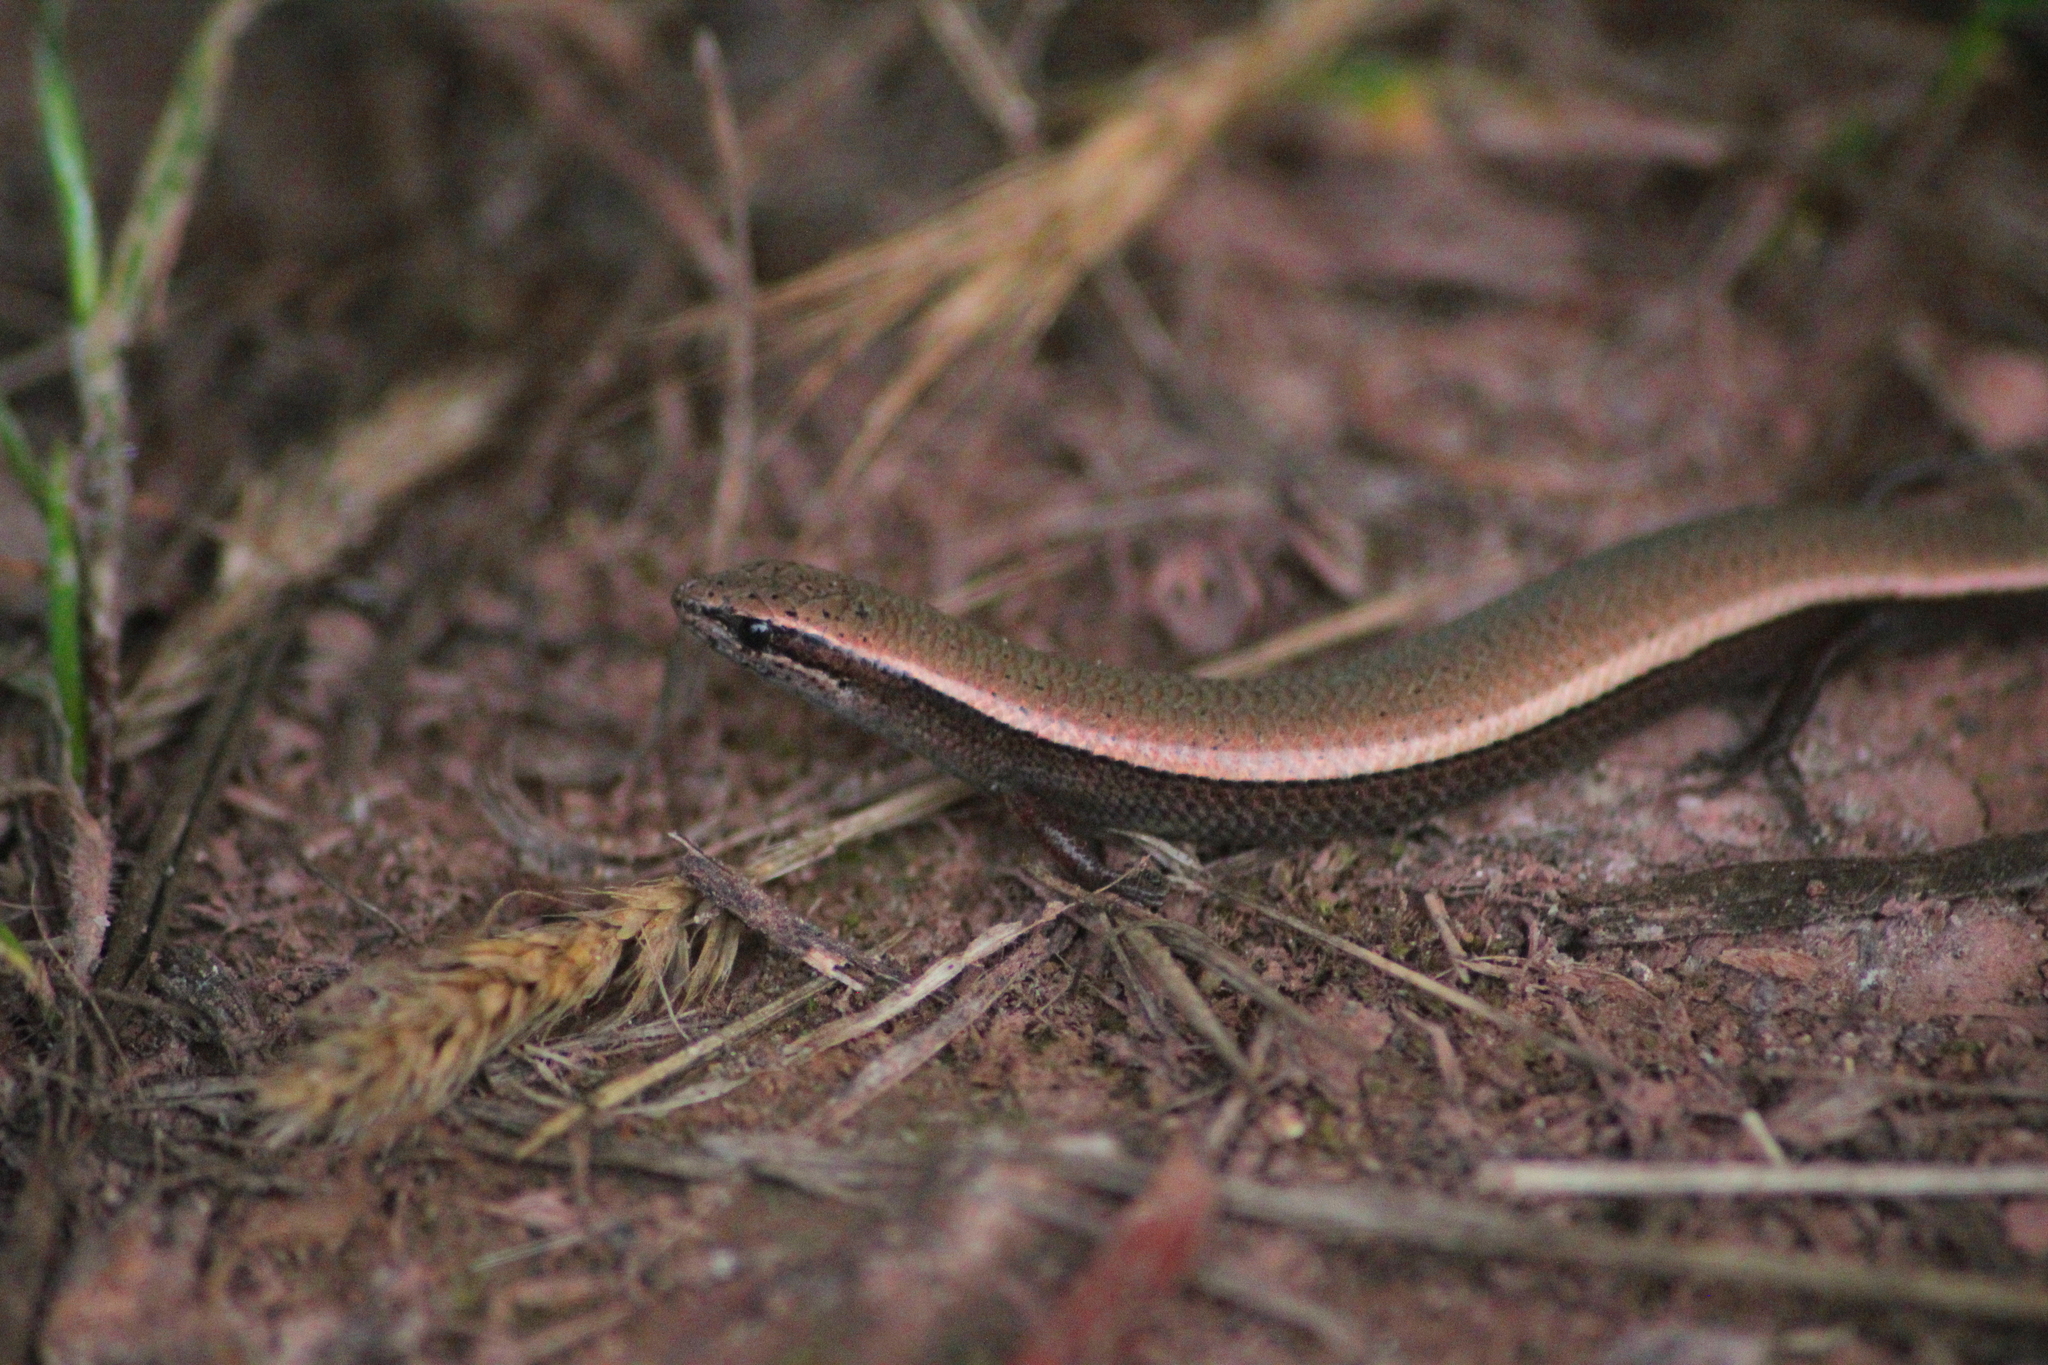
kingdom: Animalia
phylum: Chordata
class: Squamata
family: Scincidae
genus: Ablepharus
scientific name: Ablepharus budaki
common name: Budak’s snake-eyed skink
